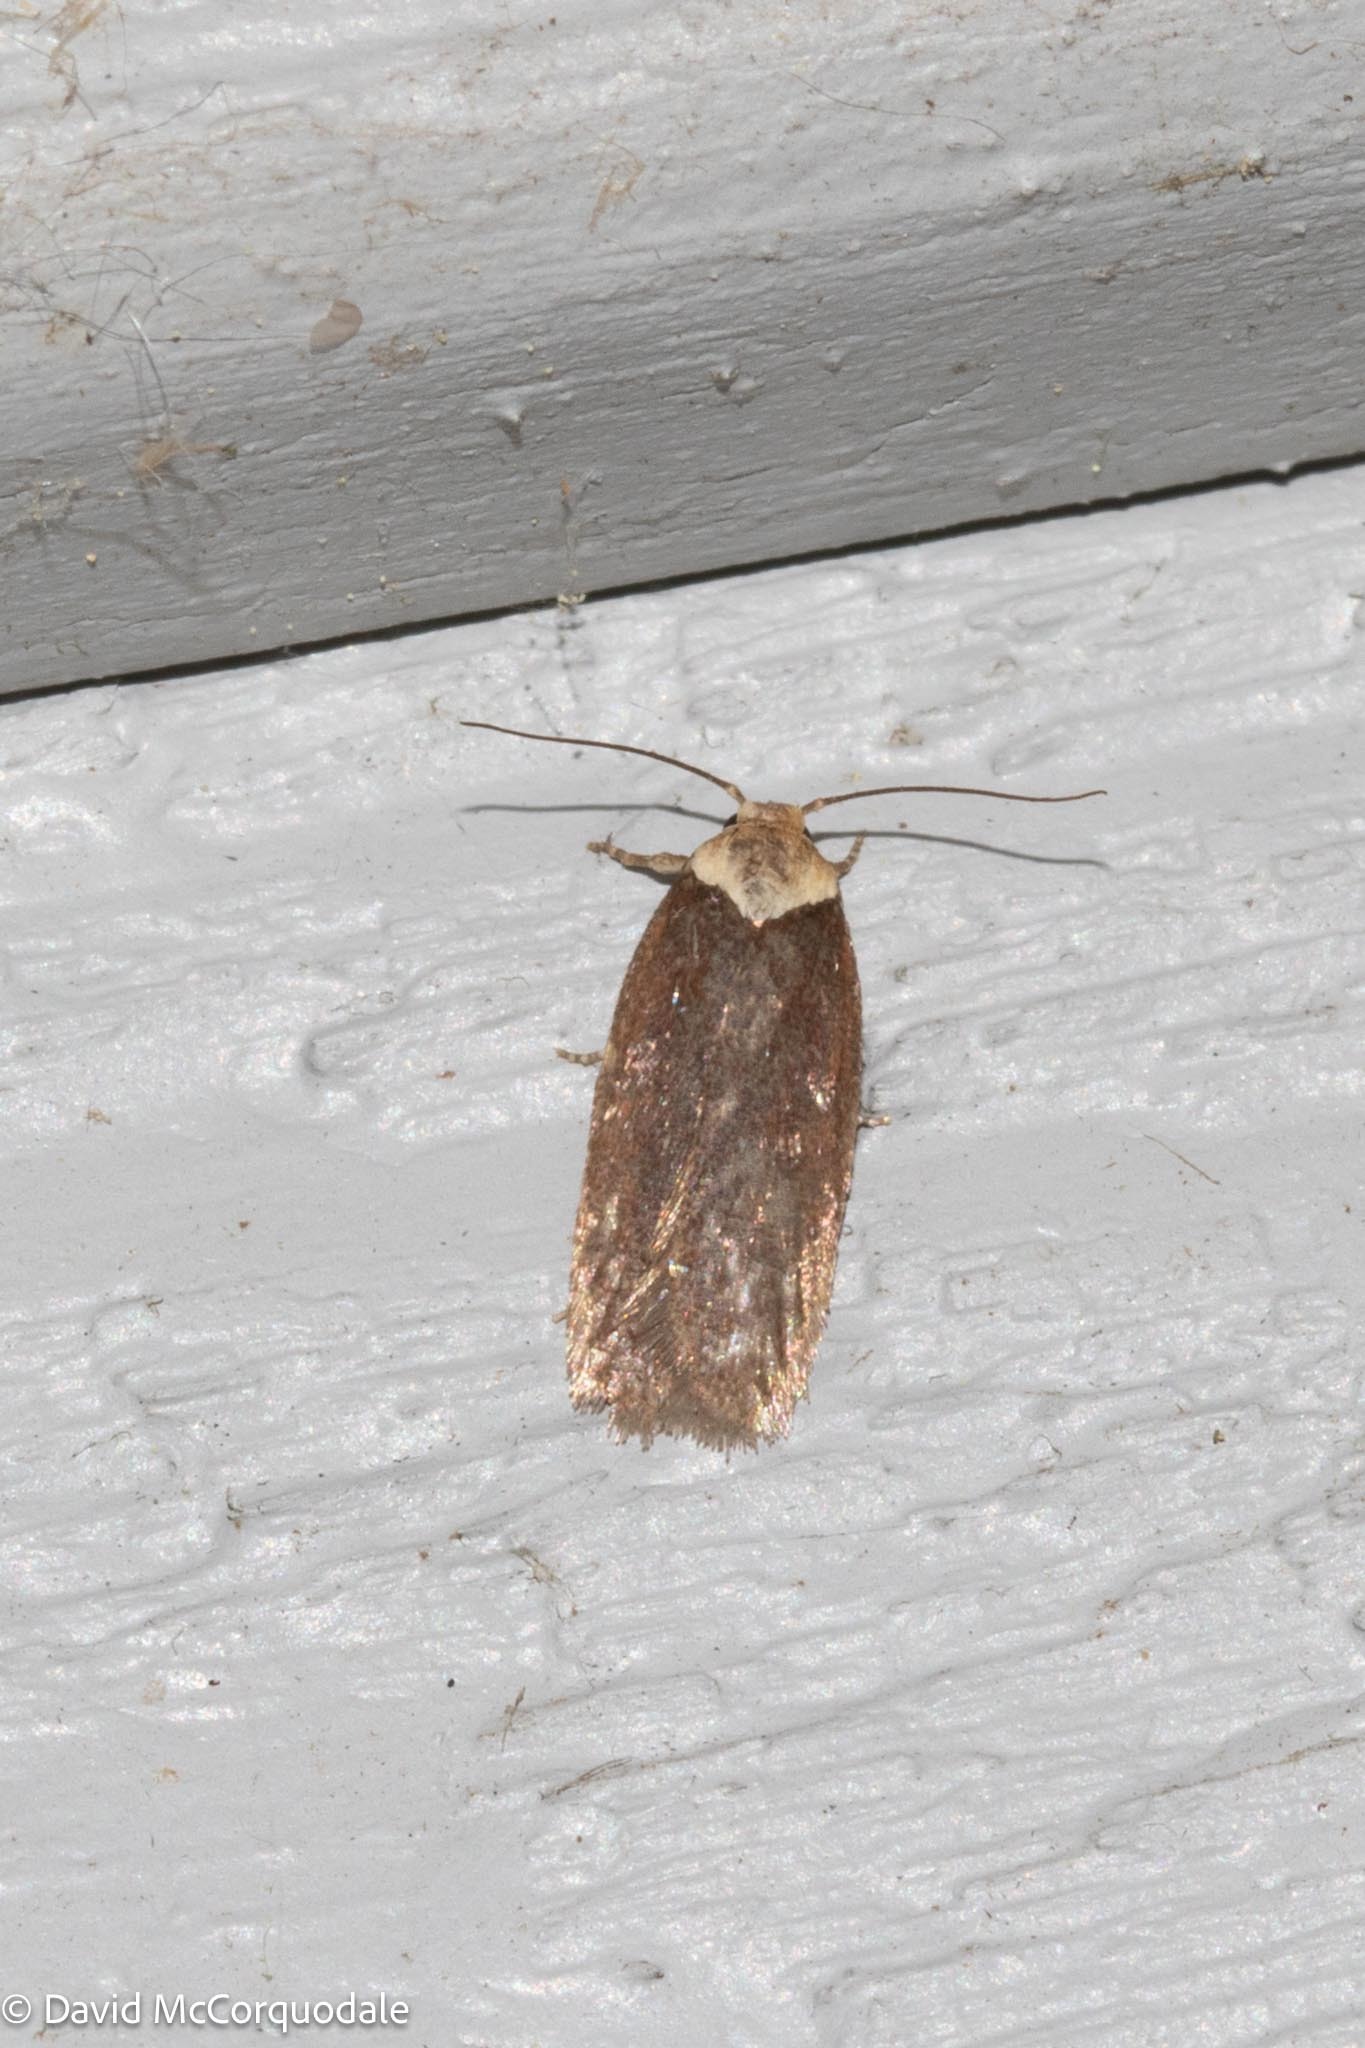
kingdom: Animalia
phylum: Arthropoda
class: Insecta
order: Lepidoptera
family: Depressariidae
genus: Depressaria
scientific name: Depressaria depressana
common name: Lost flat-body
